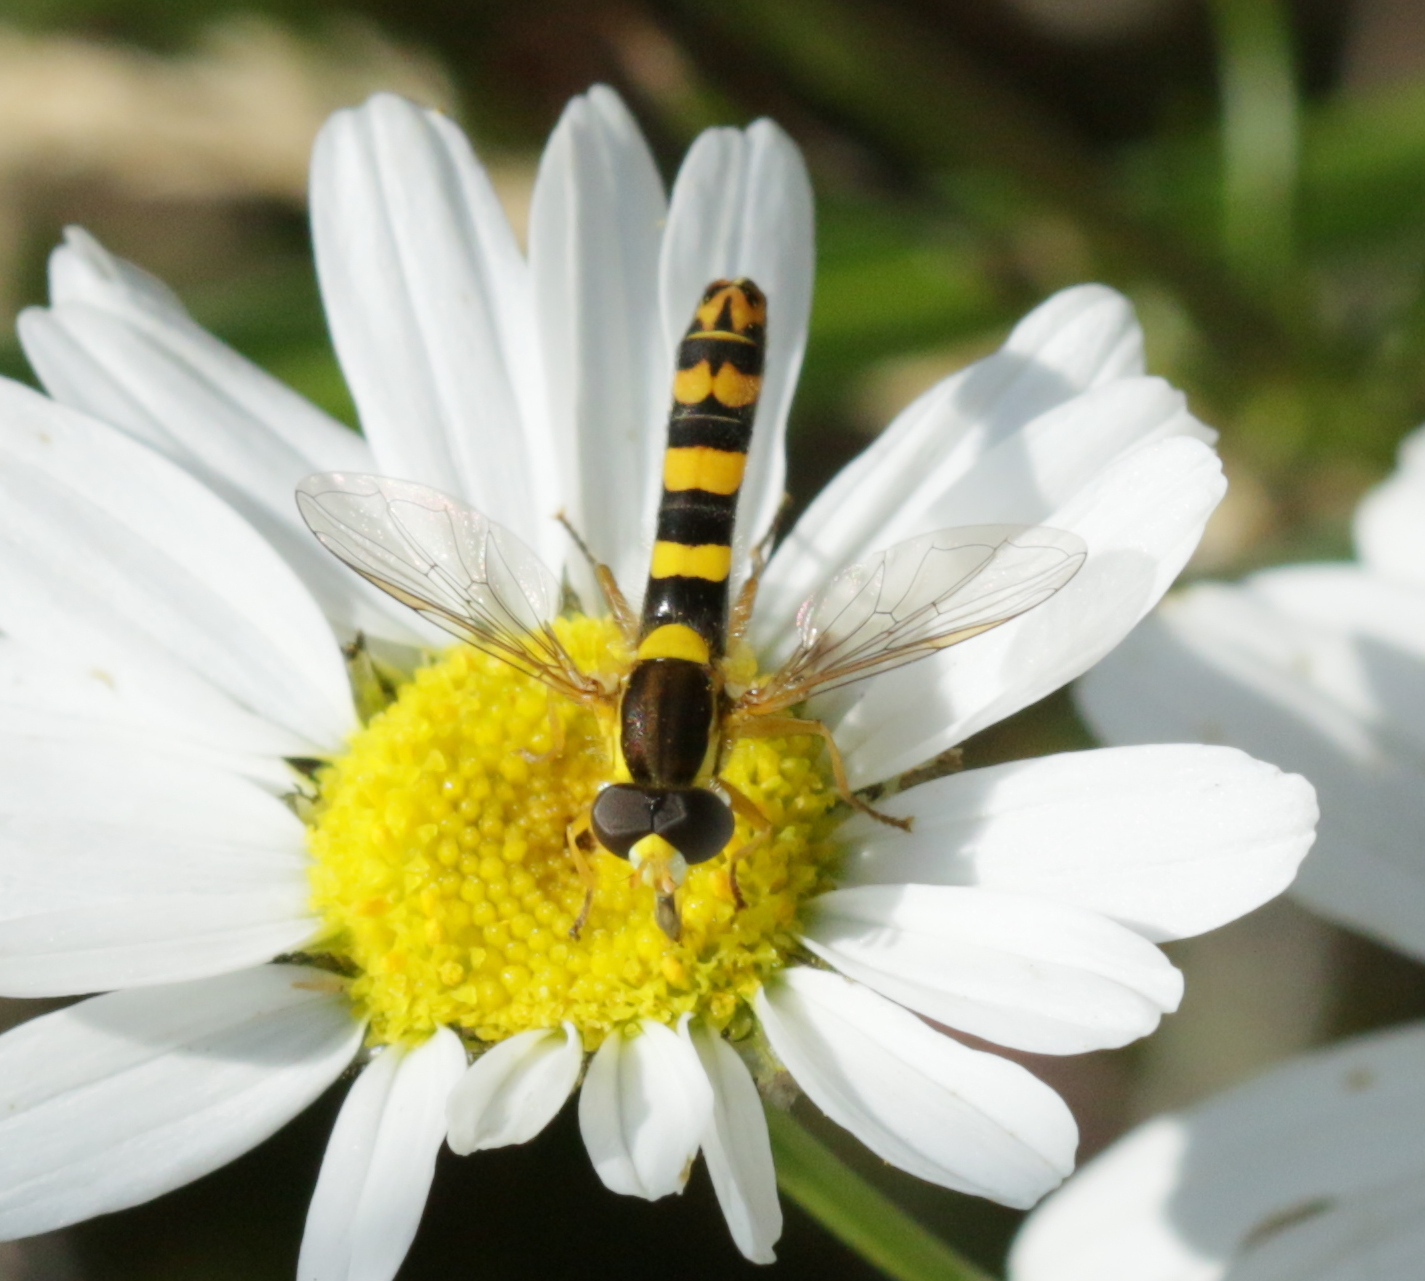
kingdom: Animalia
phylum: Arthropoda
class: Insecta
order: Diptera
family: Syrphidae
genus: Sphaerophoria
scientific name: Sphaerophoria scripta
